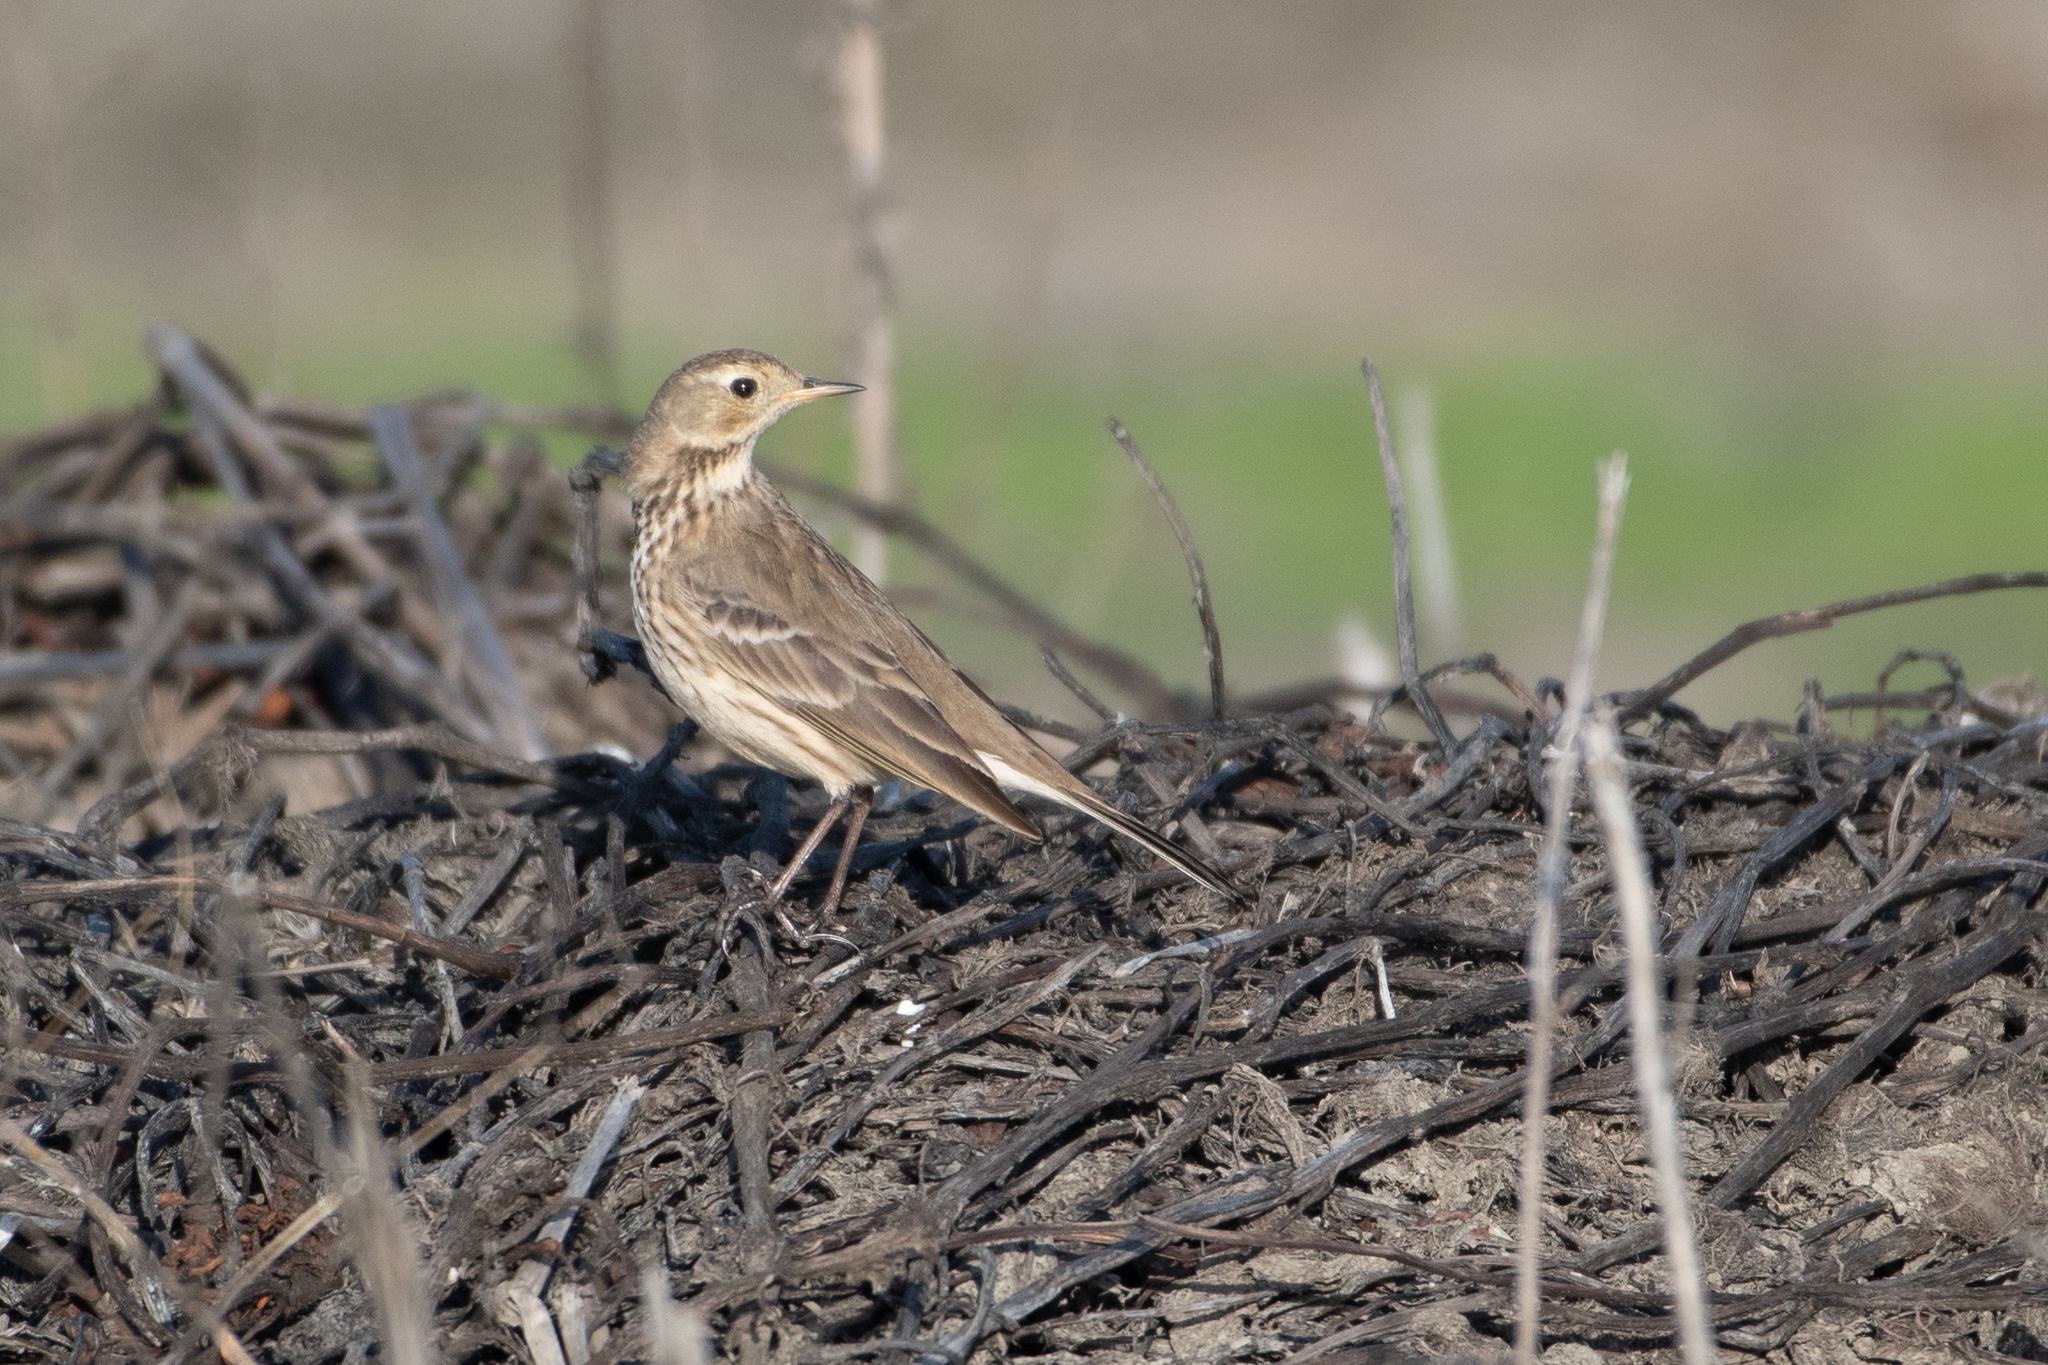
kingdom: Animalia
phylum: Chordata
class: Aves
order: Passeriformes
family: Motacillidae
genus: Anthus
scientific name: Anthus rubescens
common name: Buff-bellied pipit
